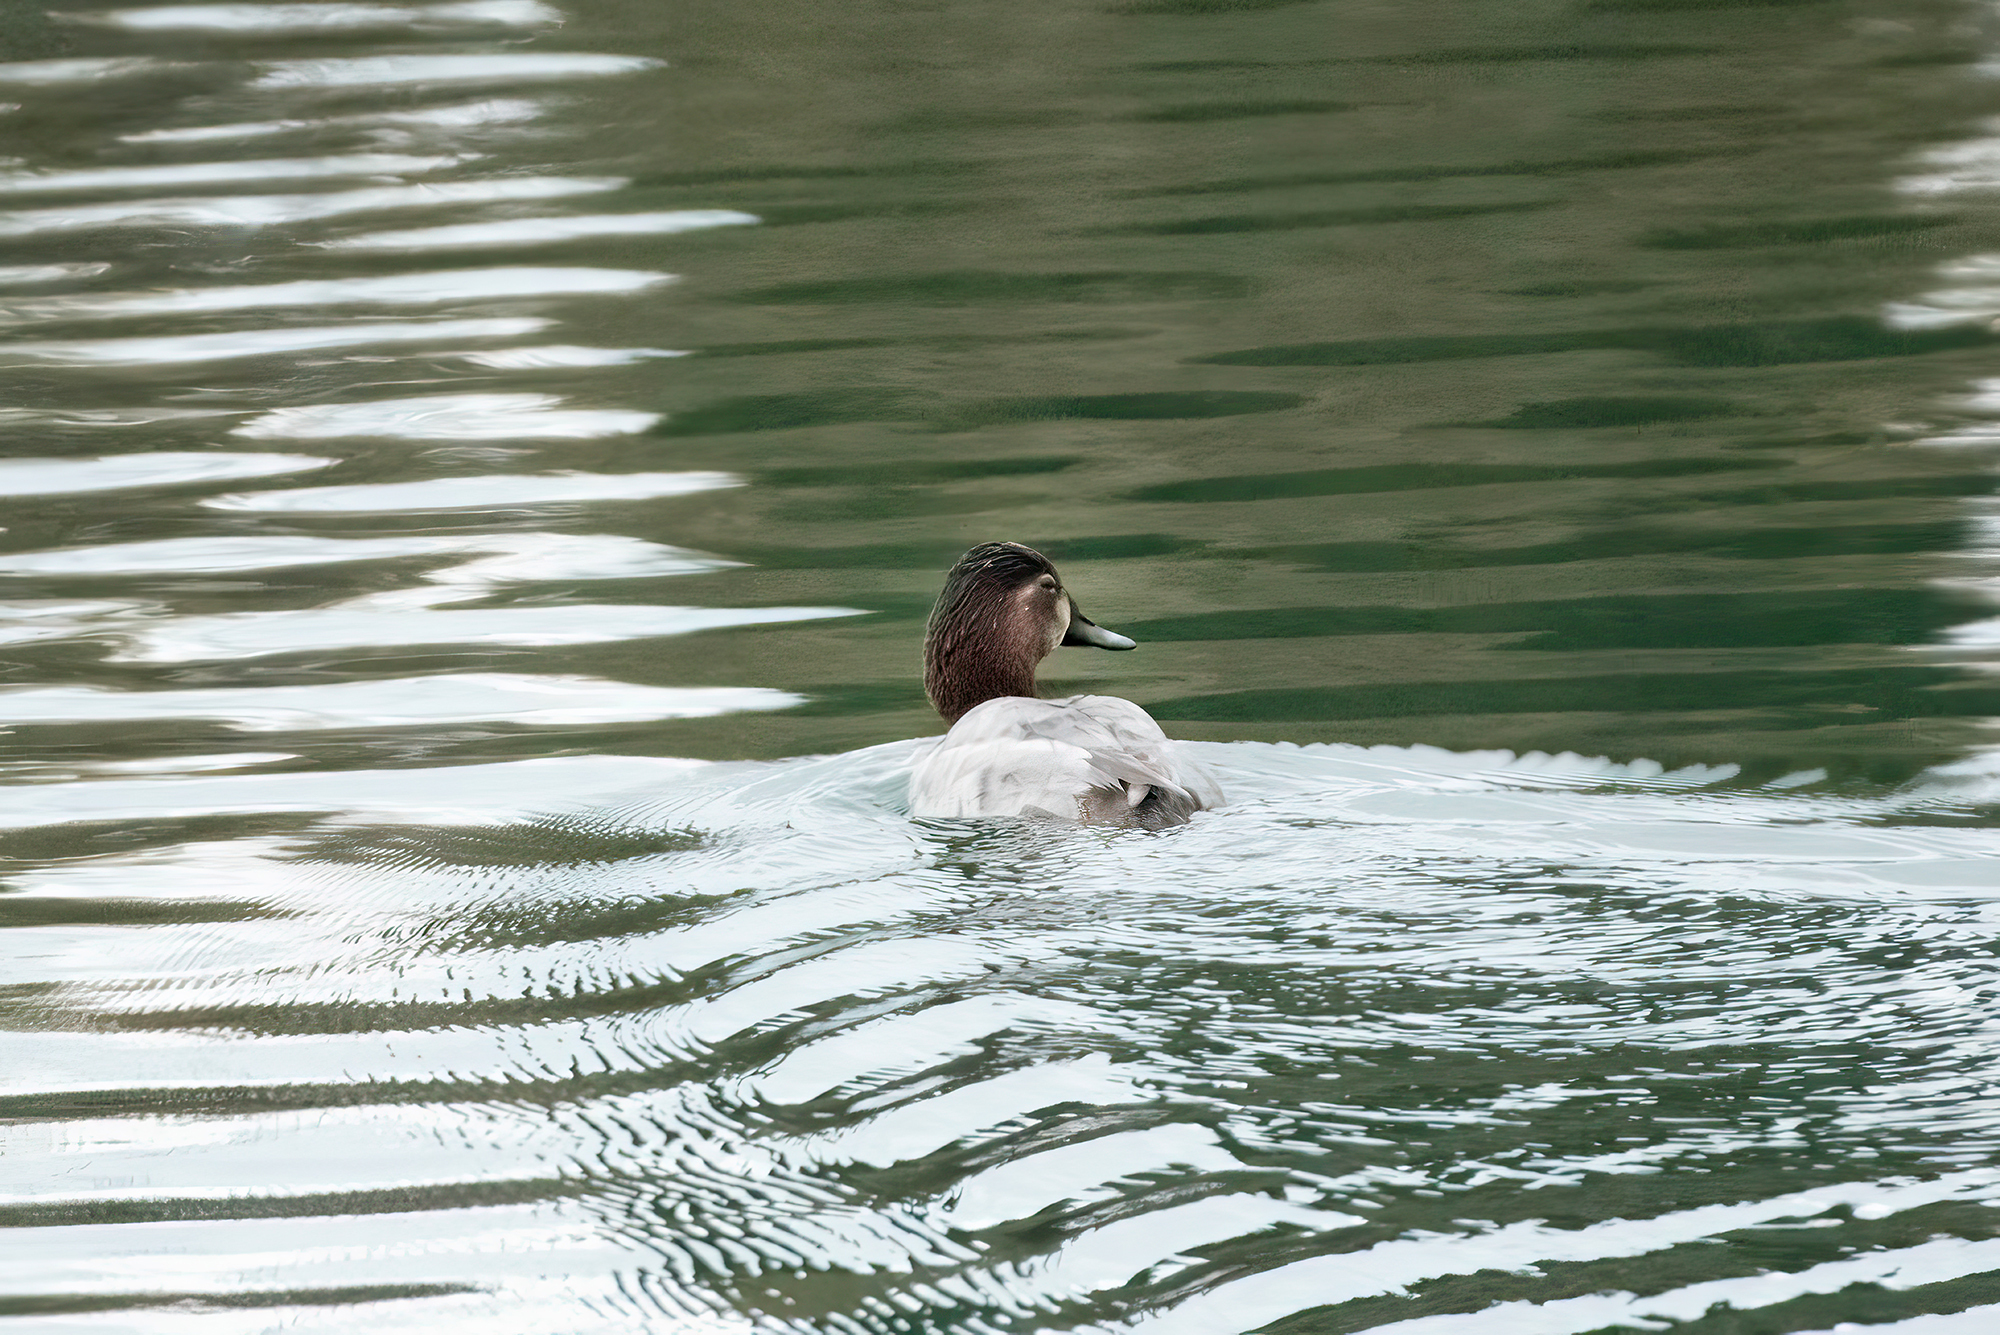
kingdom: Animalia
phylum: Chordata
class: Aves
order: Anseriformes
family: Anatidae
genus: Aythya
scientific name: Aythya ferina
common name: Common pochard
